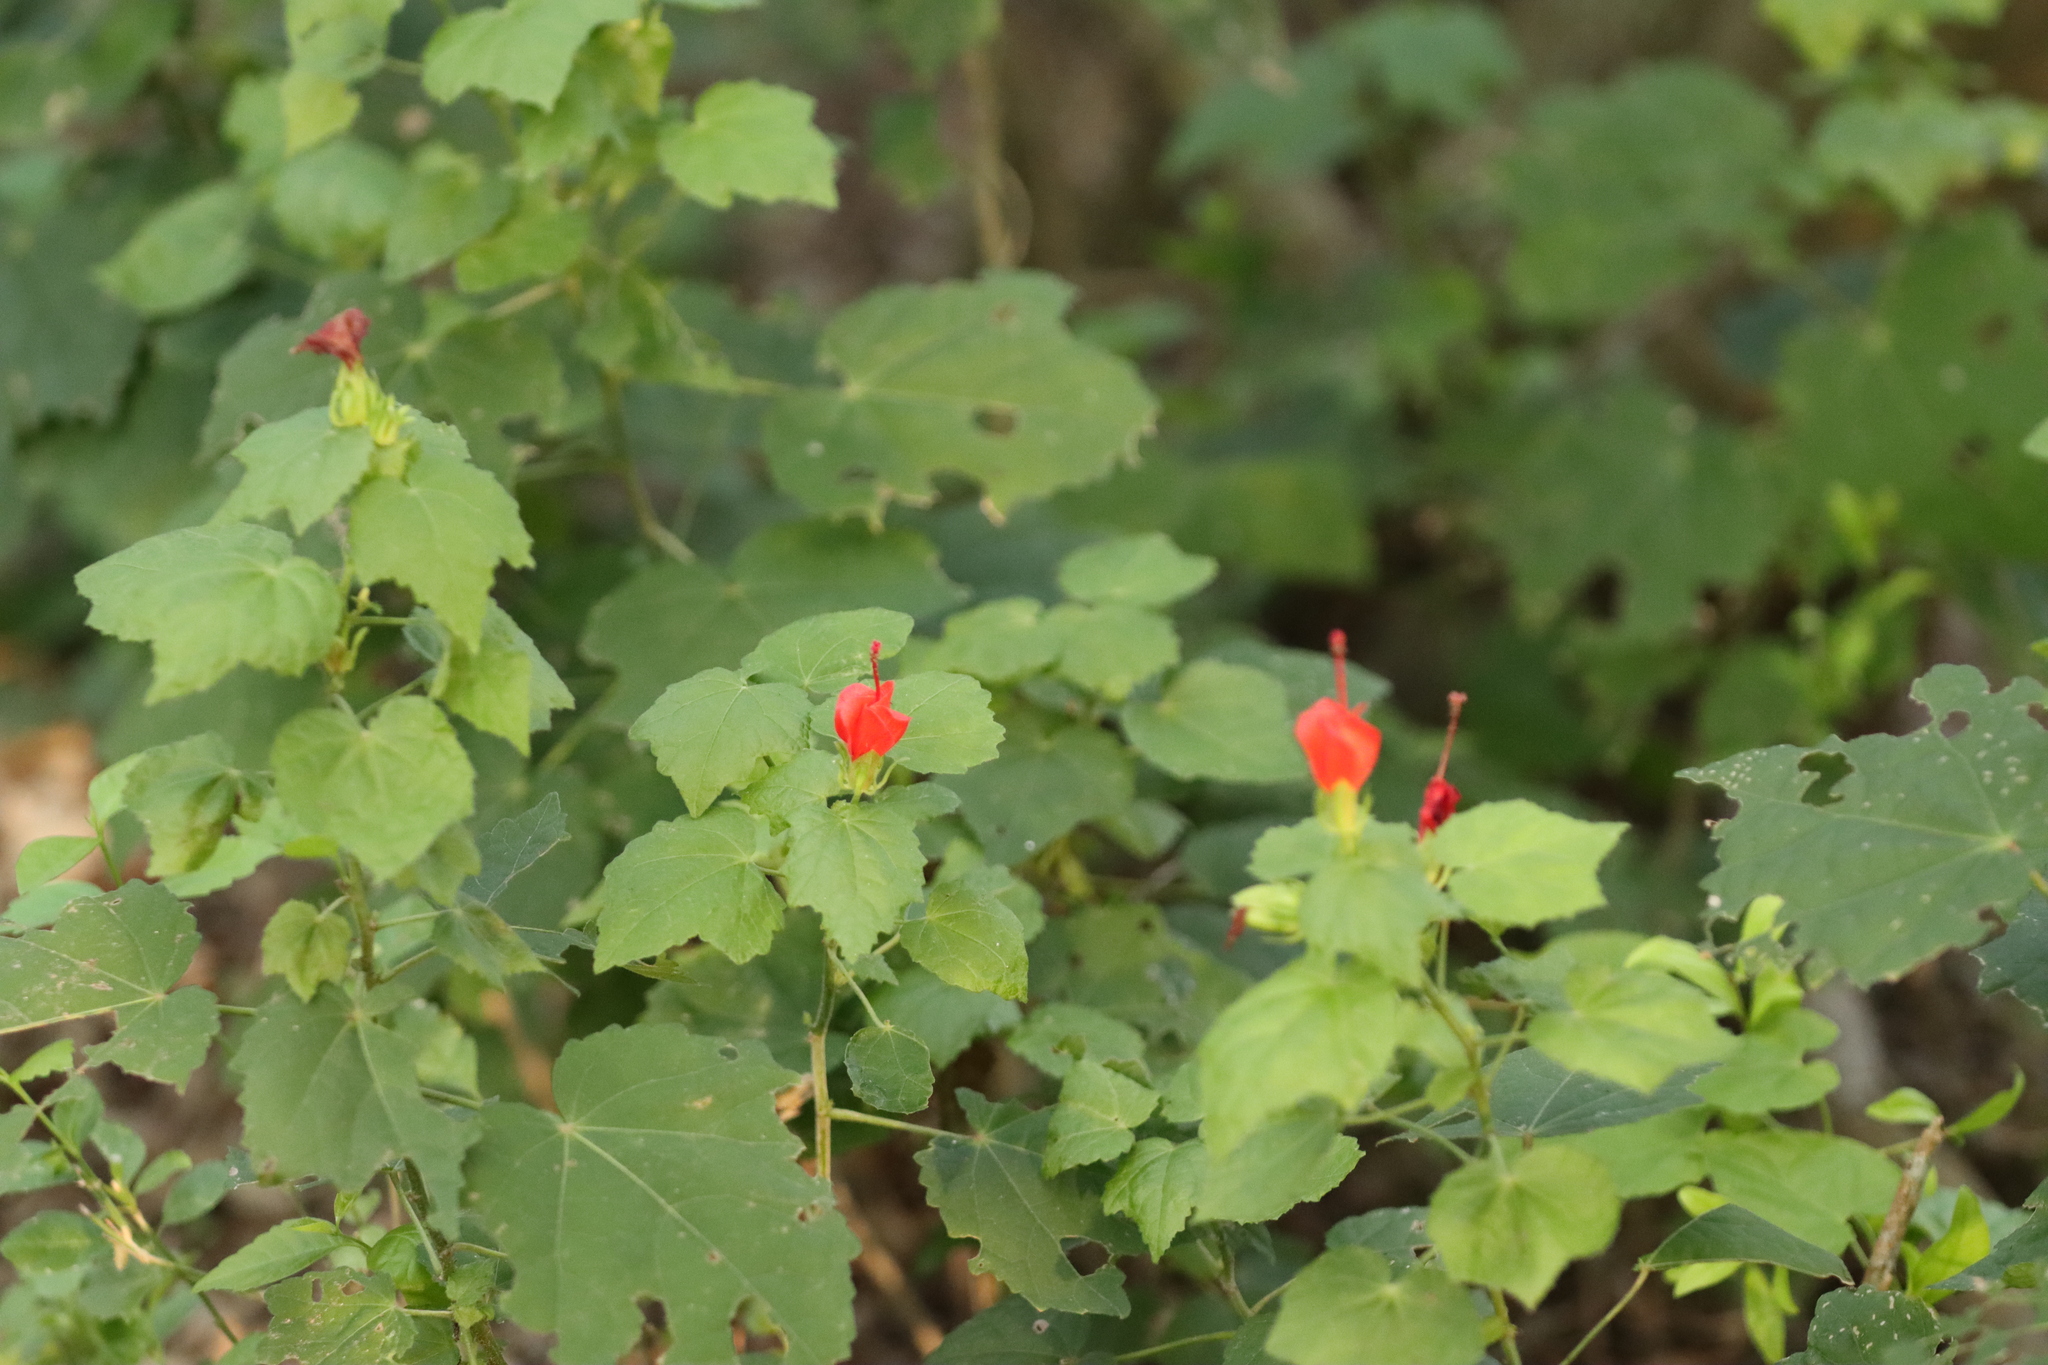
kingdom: Plantae
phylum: Tracheophyta
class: Magnoliopsida
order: Malvales
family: Malvaceae
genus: Malvaviscus
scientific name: Malvaviscus arboreus
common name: Wax mallow
